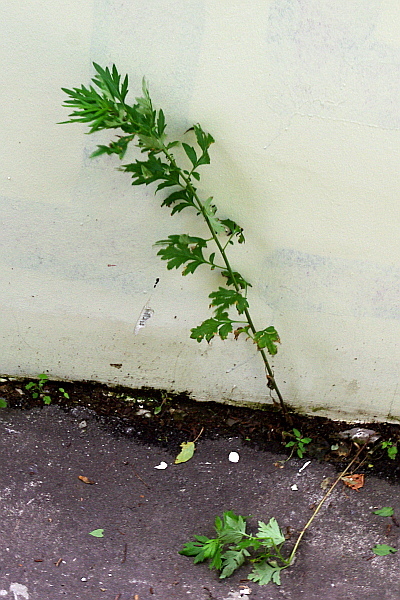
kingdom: Plantae
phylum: Tracheophyta
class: Magnoliopsida
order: Asterales
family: Asteraceae
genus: Artemisia
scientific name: Artemisia vulgaris
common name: Mugwort
